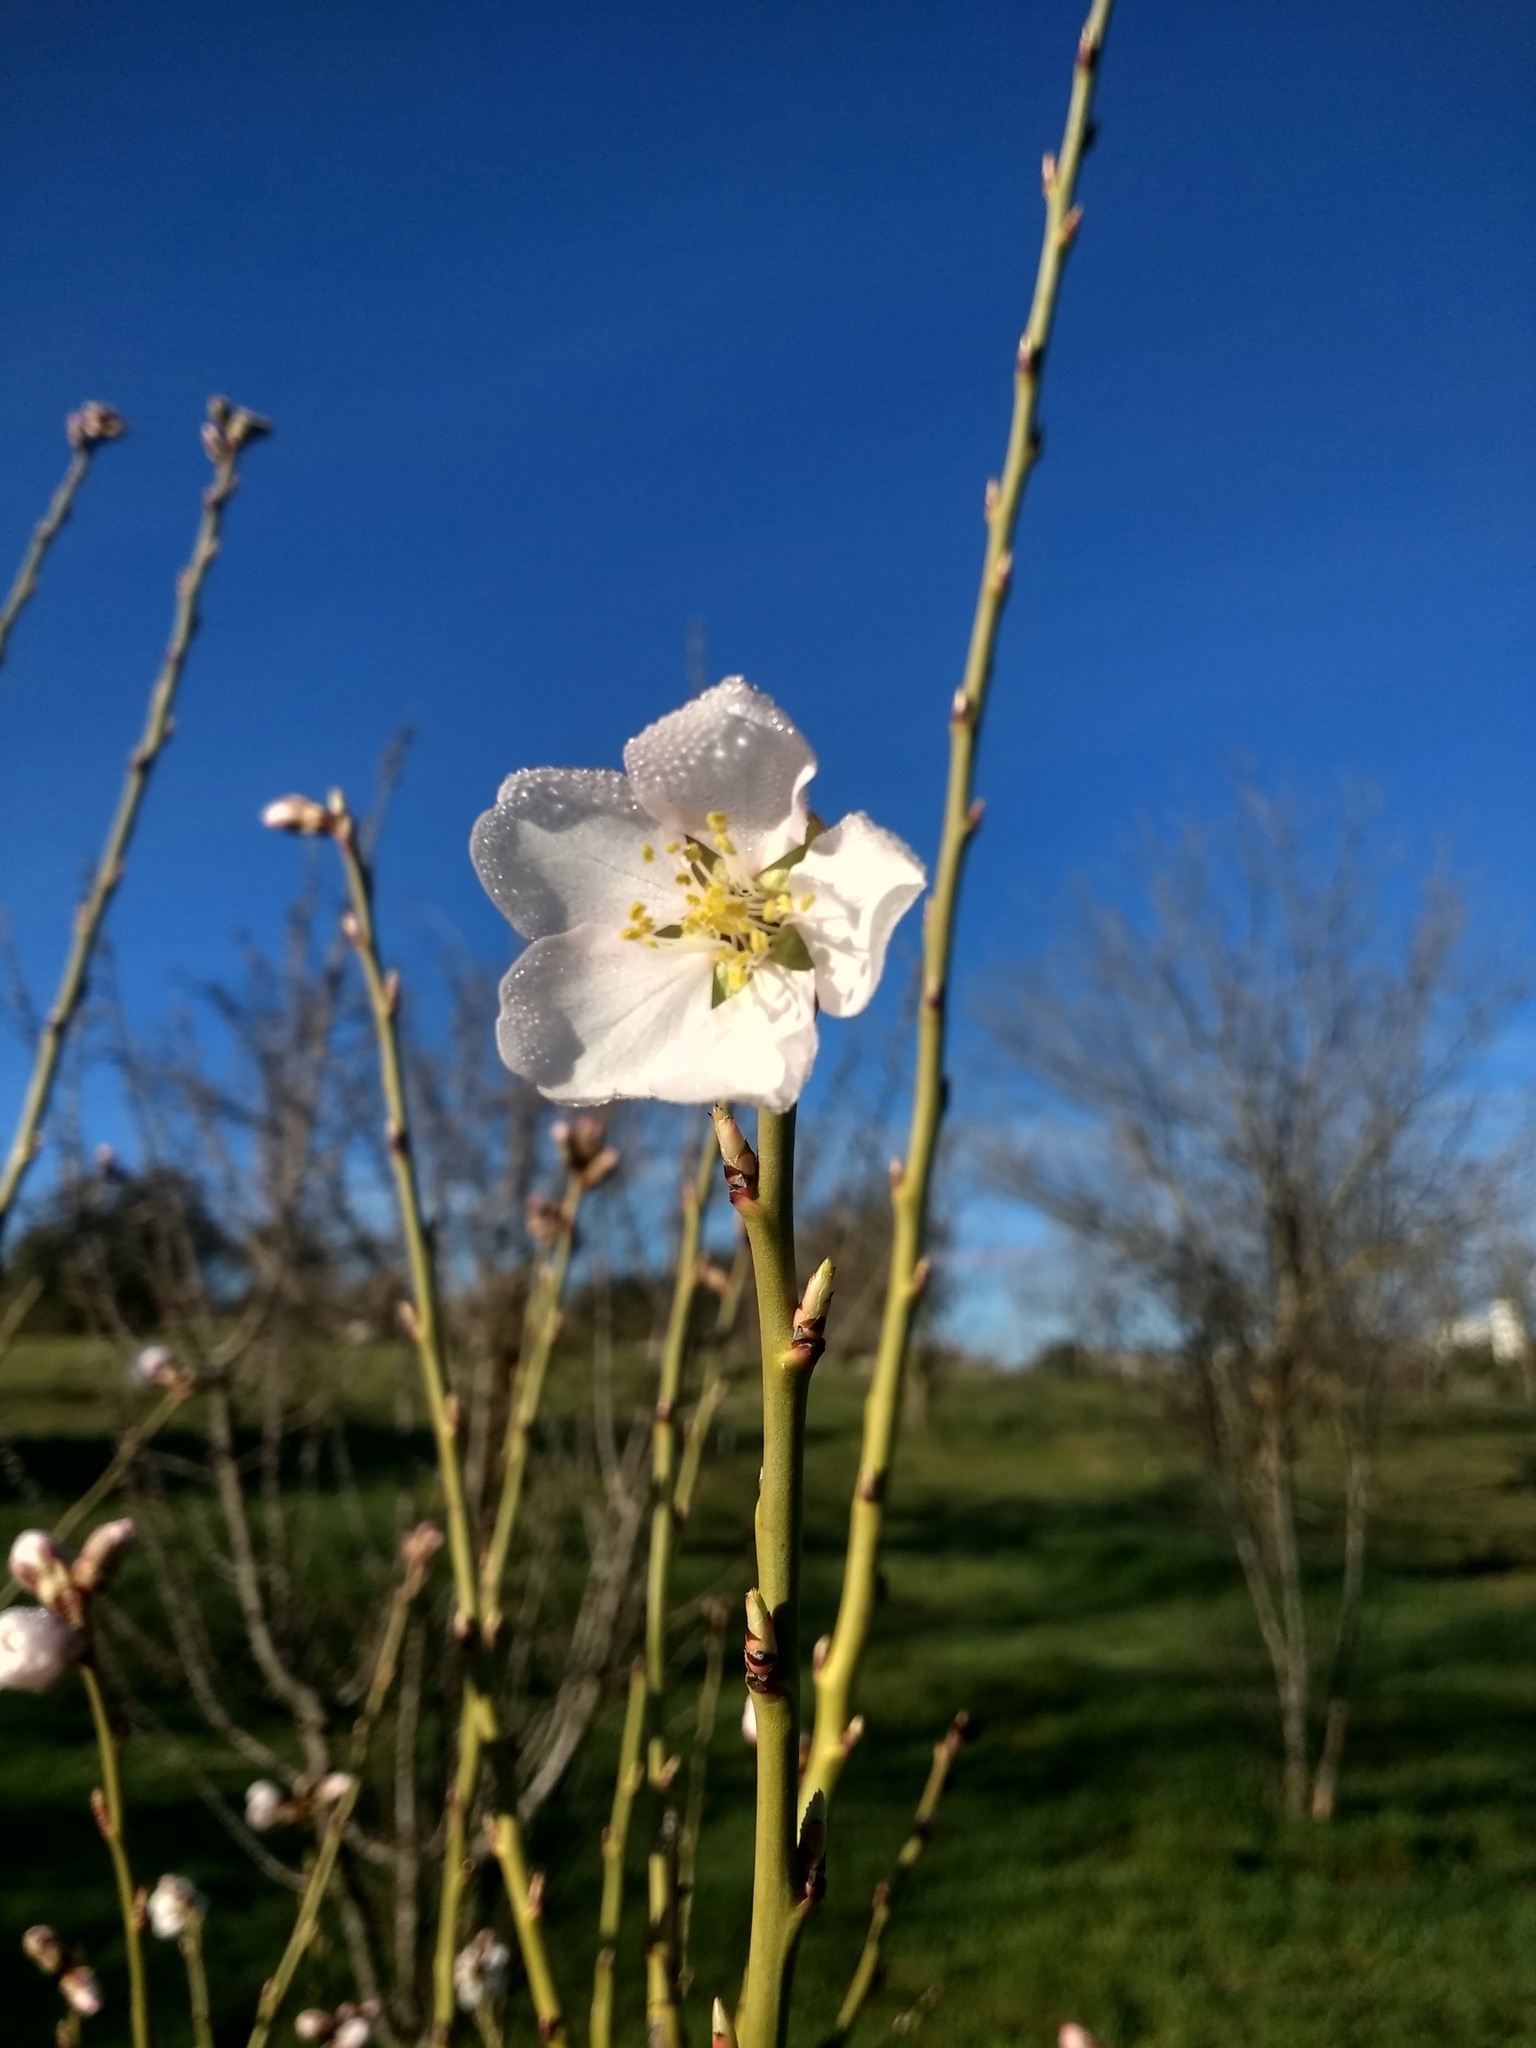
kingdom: Plantae
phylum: Tracheophyta
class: Magnoliopsida
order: Rosales
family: Rosaceae
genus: Prunus
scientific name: Prunus amygdalus
